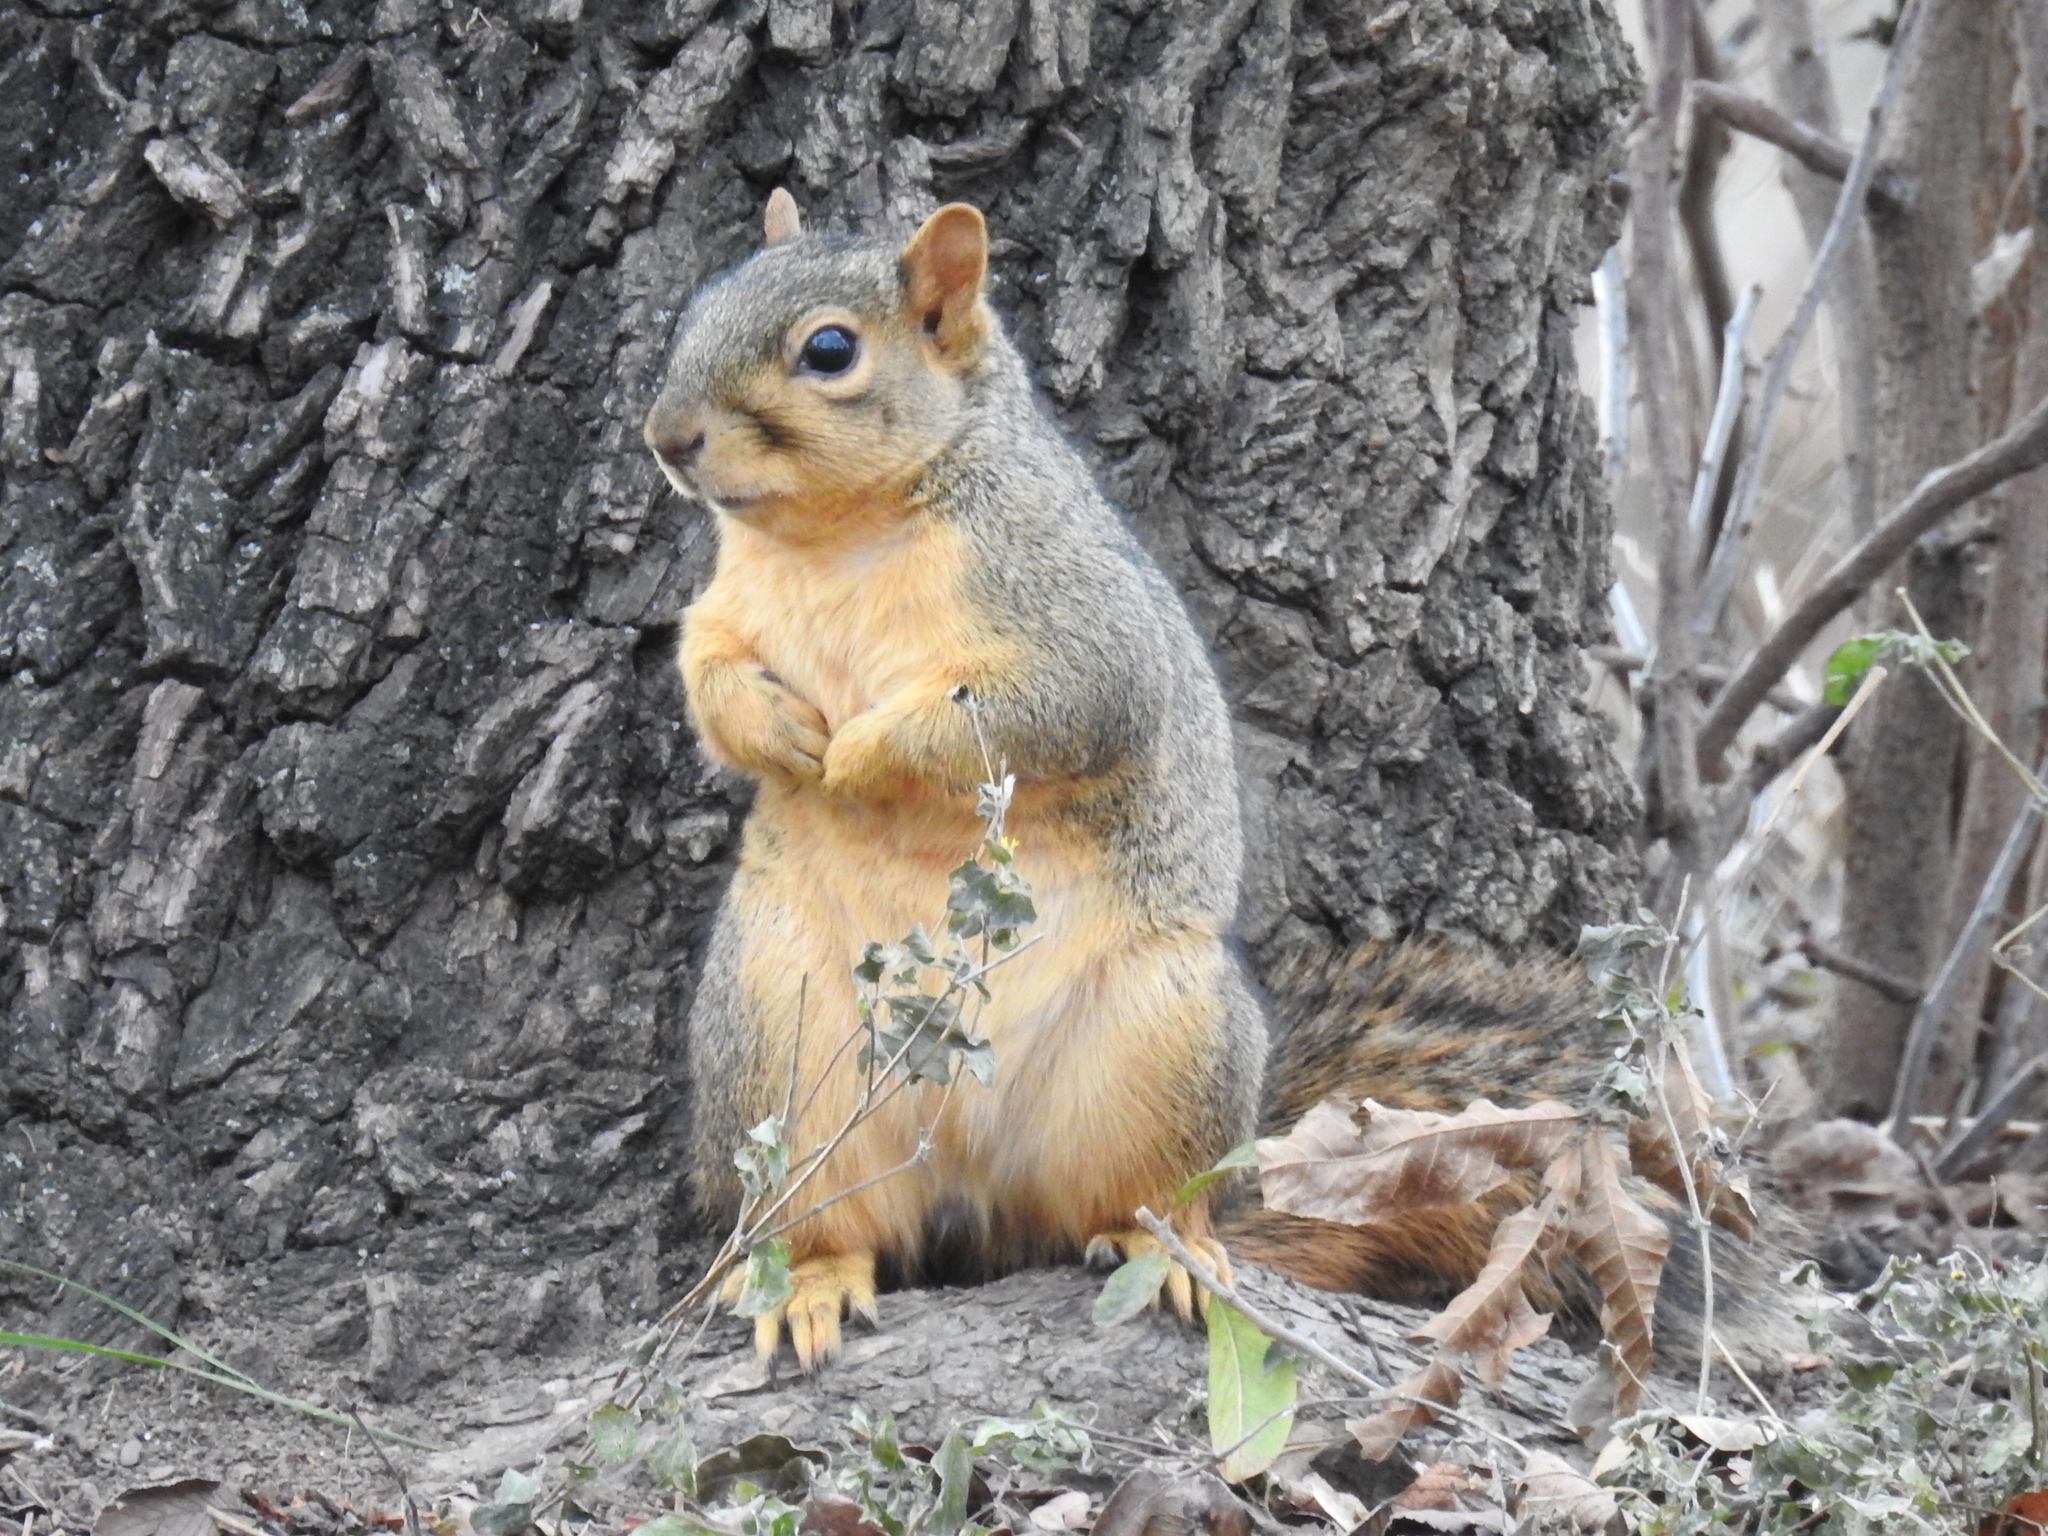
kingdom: Animalia
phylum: Chordata
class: Mammalia
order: Rodentia
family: Sciuridae
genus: Sciurus
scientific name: Sciurus niger
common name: Fox squirrel
